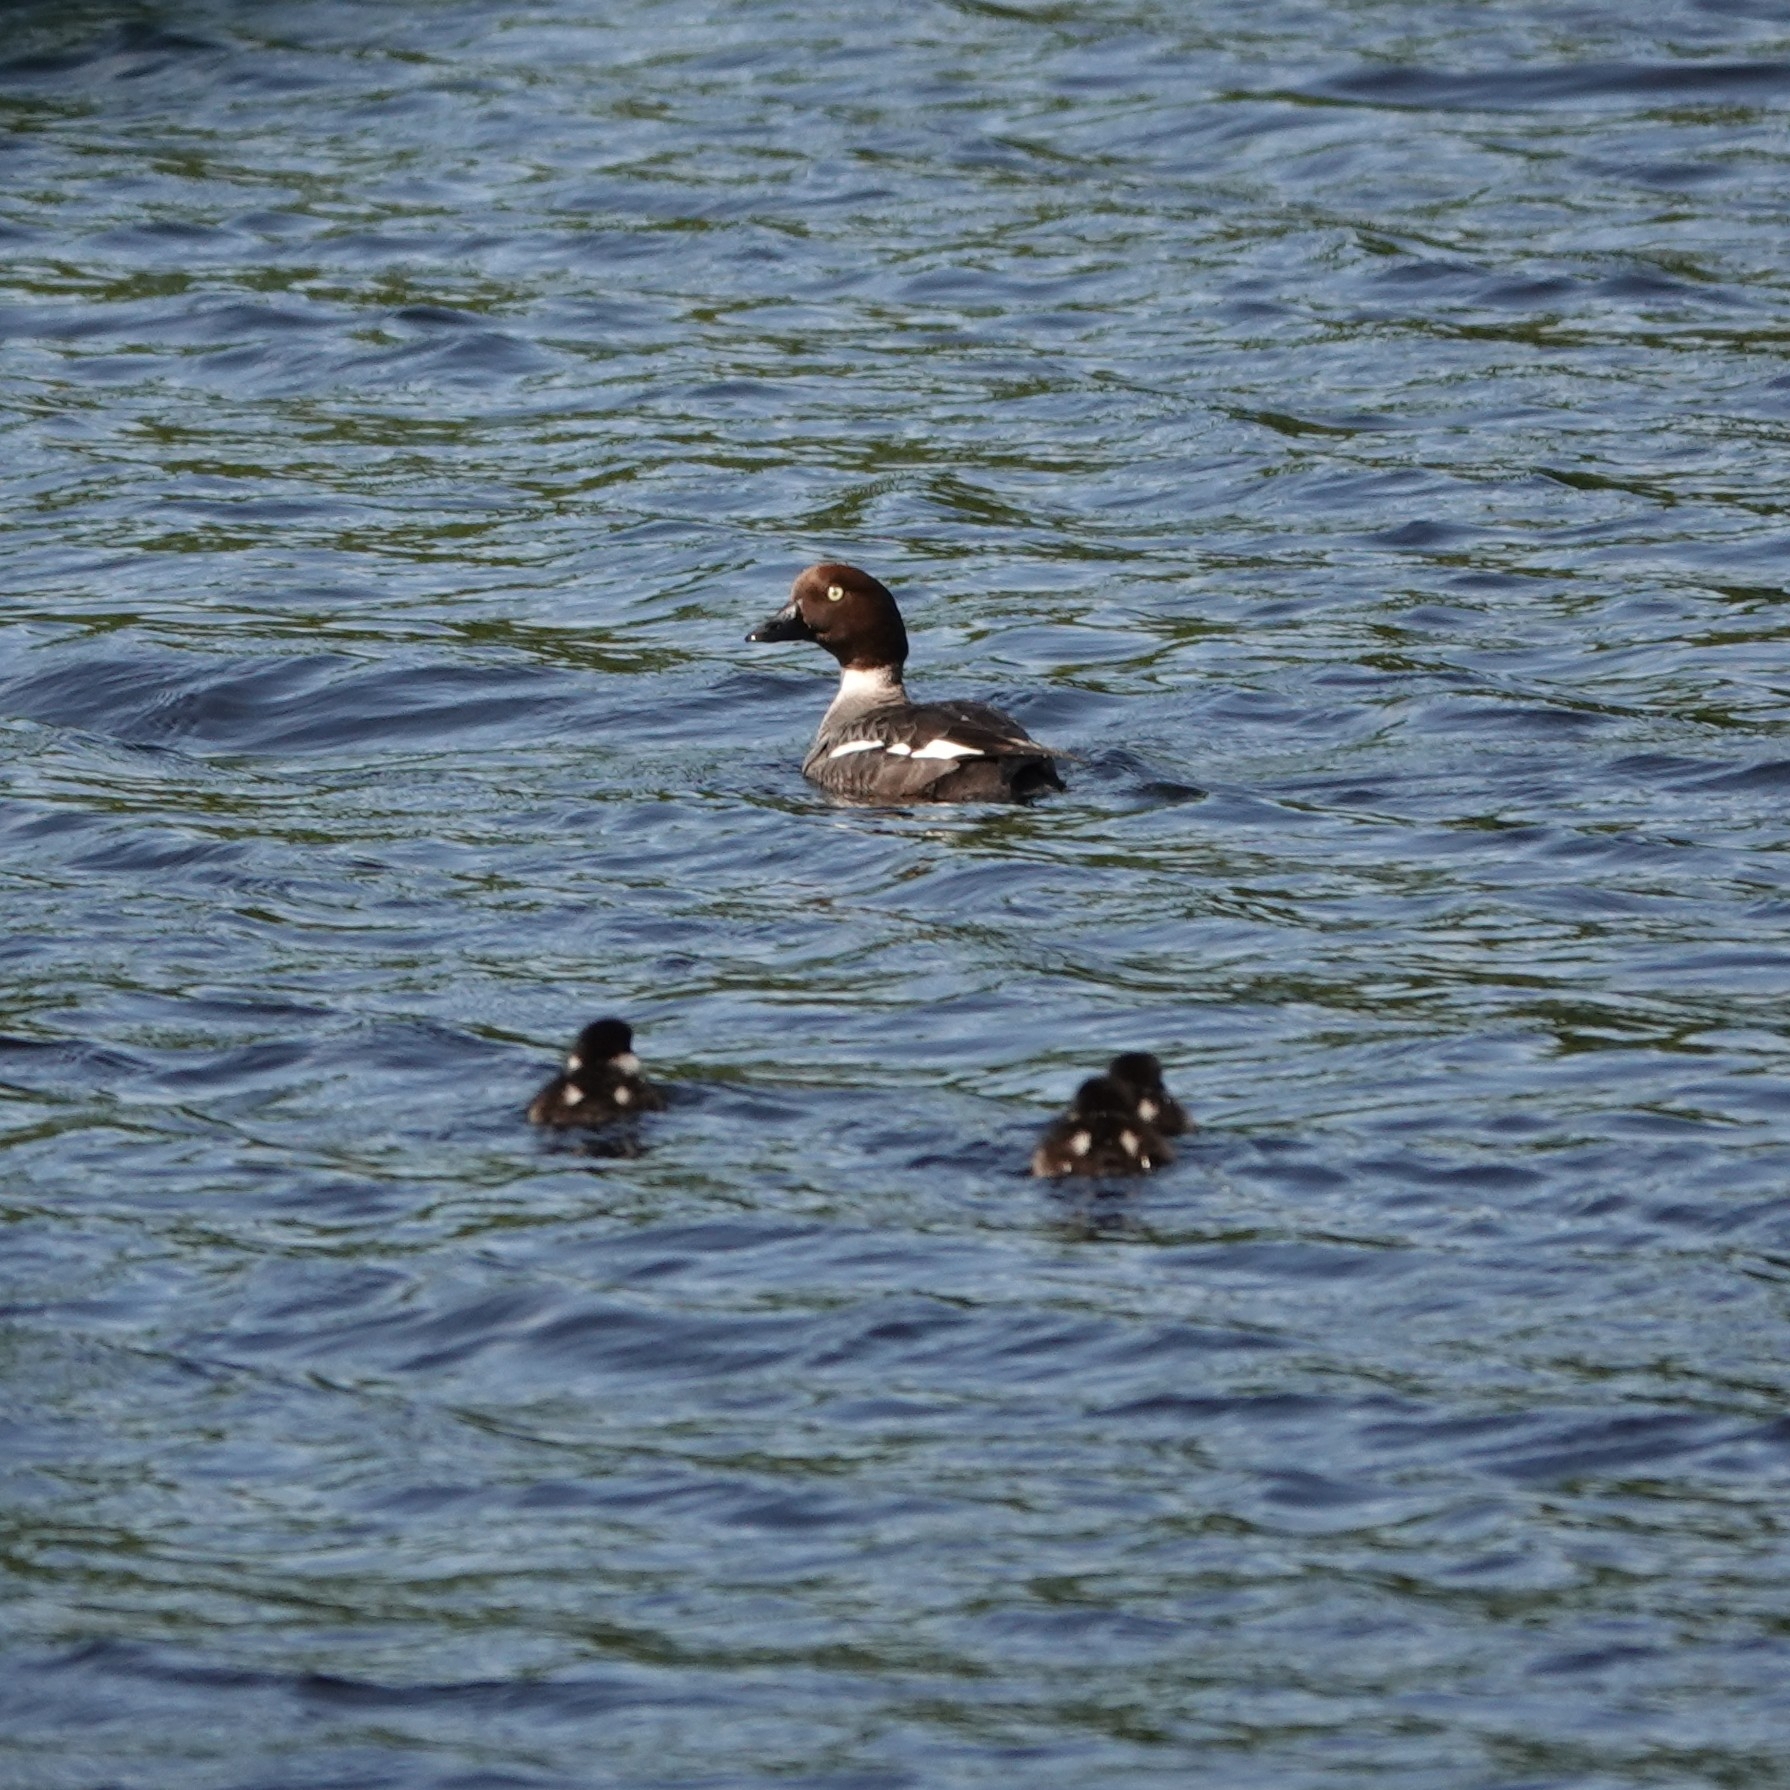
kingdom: Animalia
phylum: Chordata
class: Aves
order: Anseriformes
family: Anatidae
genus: Bucephala
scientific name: Bucephala clangula
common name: Common goldeneye
